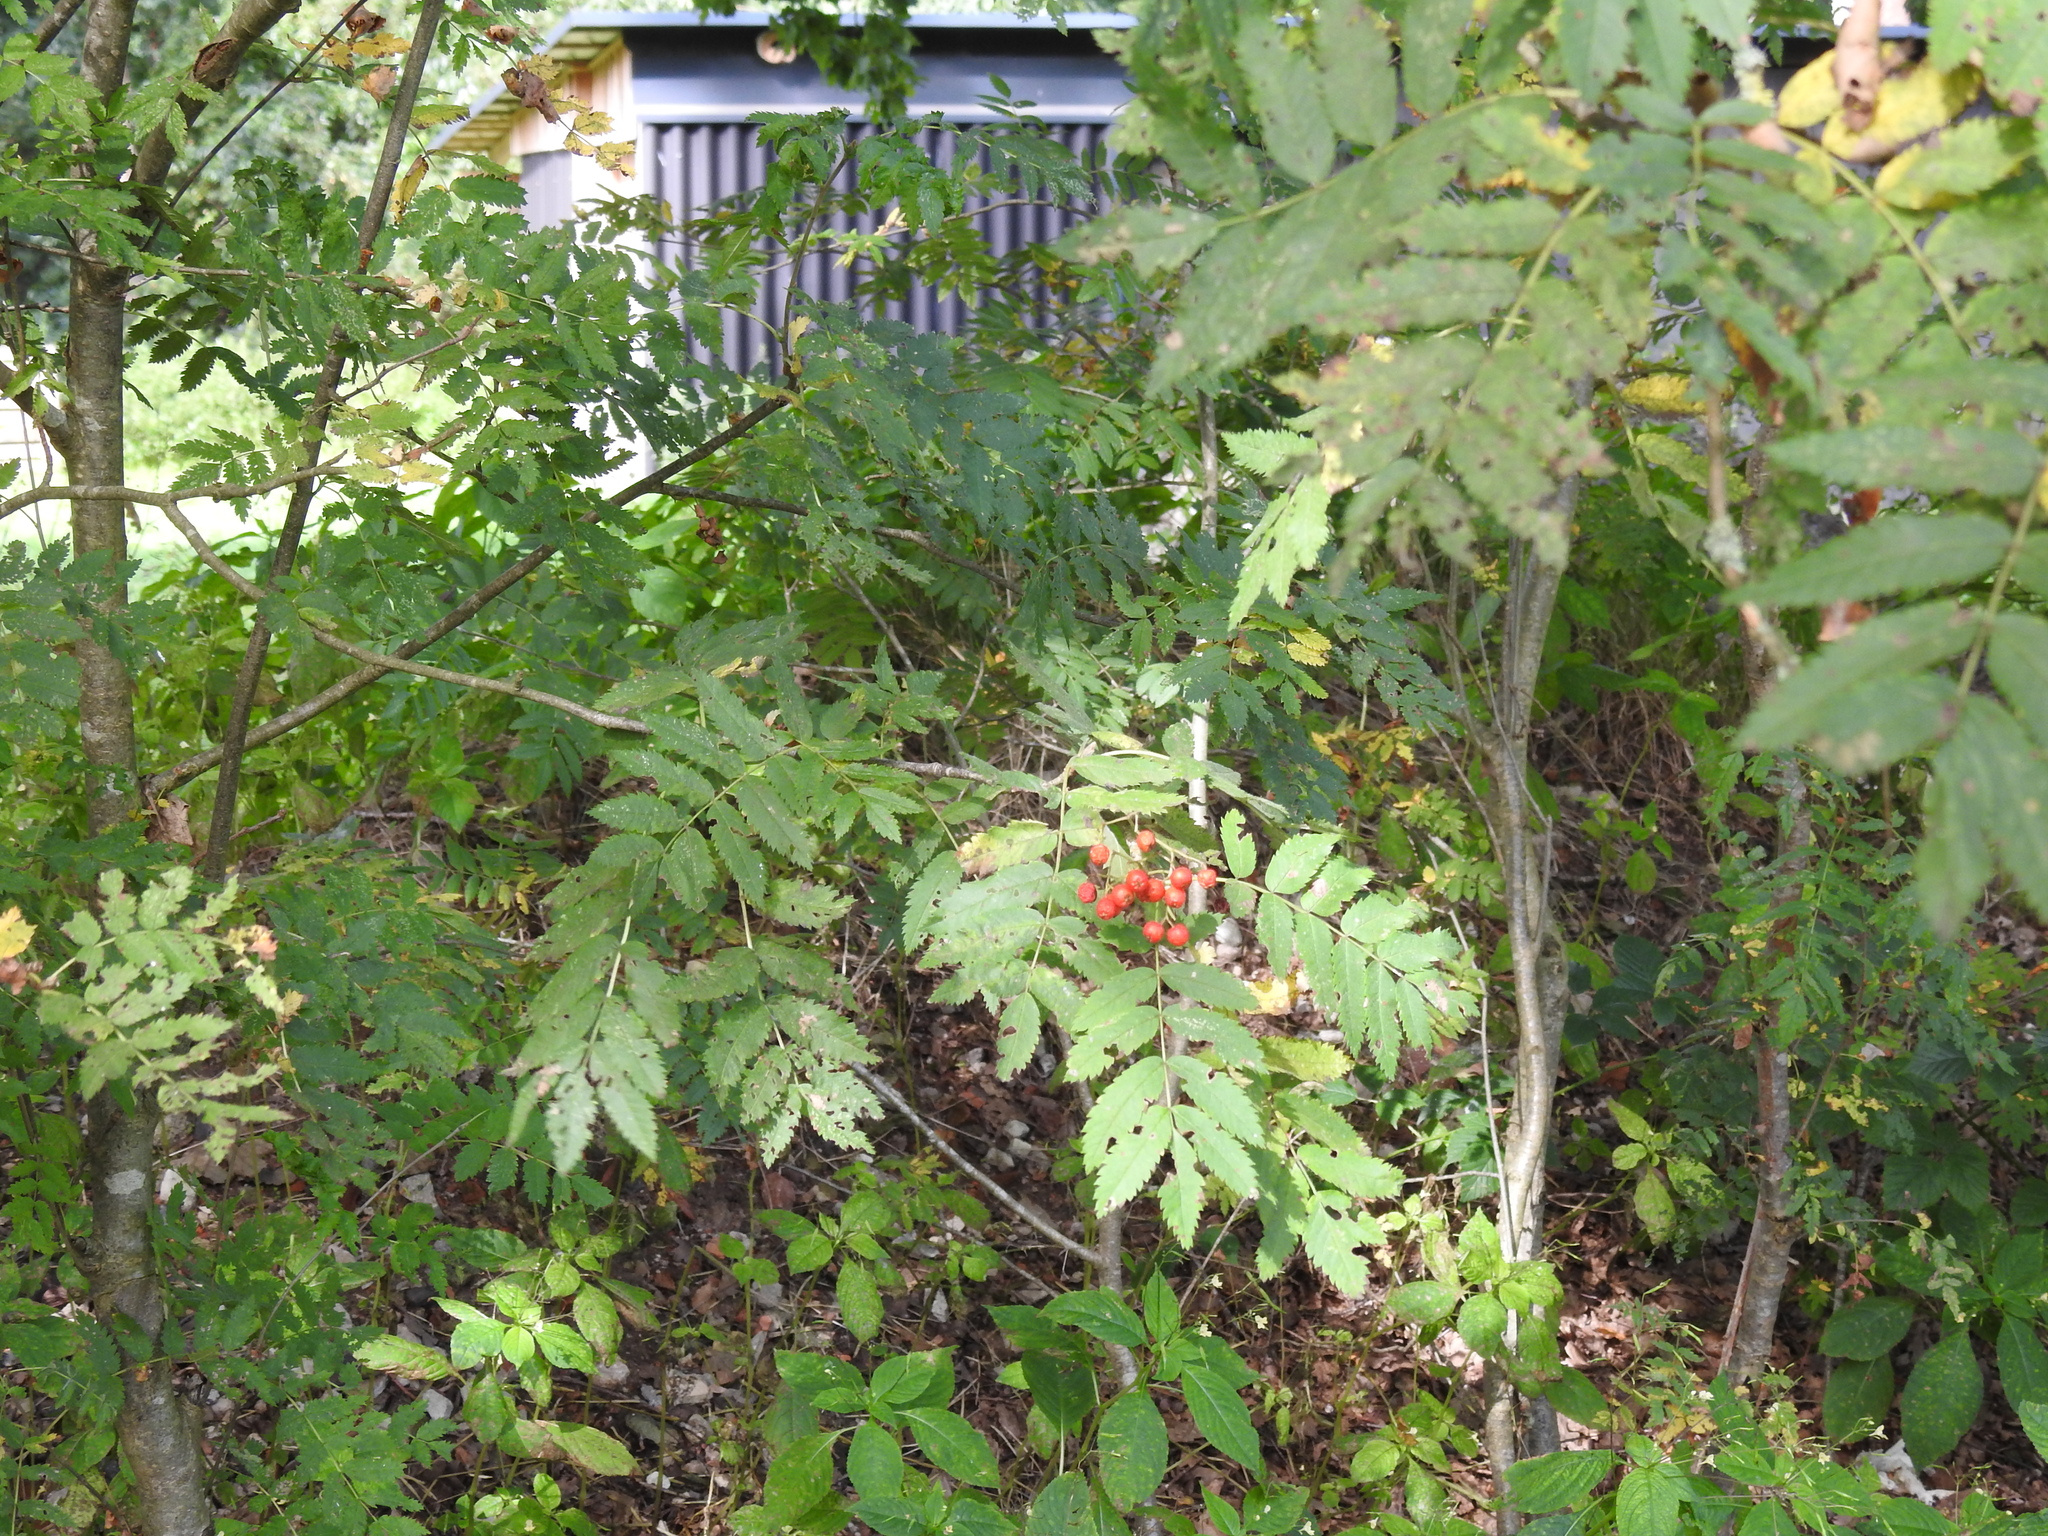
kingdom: Plantae
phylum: Tracheophyta
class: Magnoliopsida
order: Rosales
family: Rosaceae
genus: Sorbus
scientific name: Sorbus aucuparia
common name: Rowan
